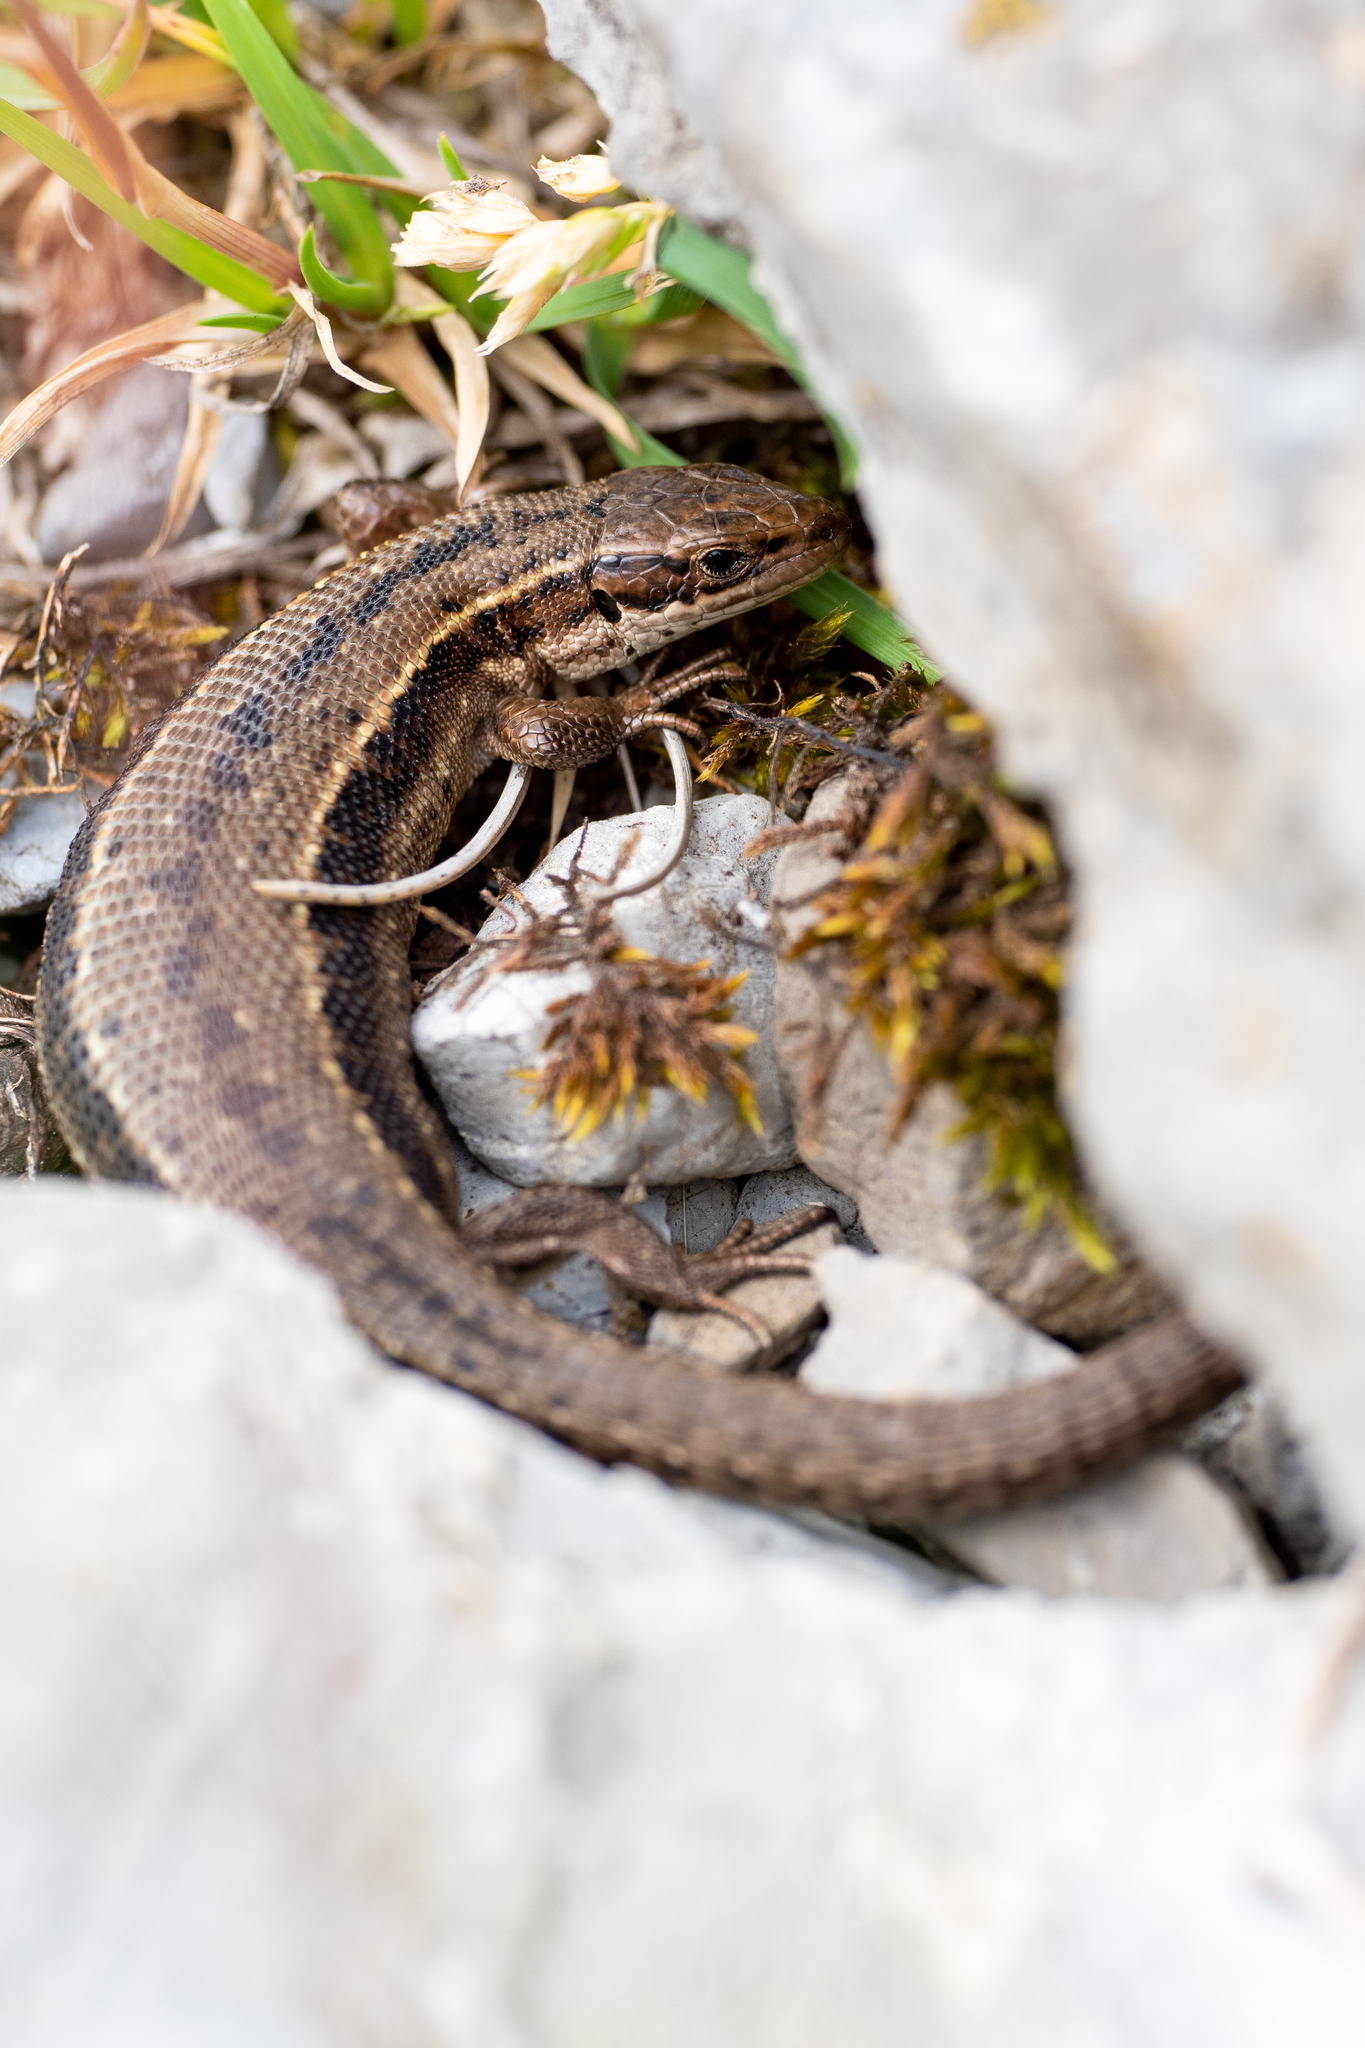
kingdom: Animalia
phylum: Chordata
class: Squamata
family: Lacertidae
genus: Zootoca
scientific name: Zootoca vivipara
